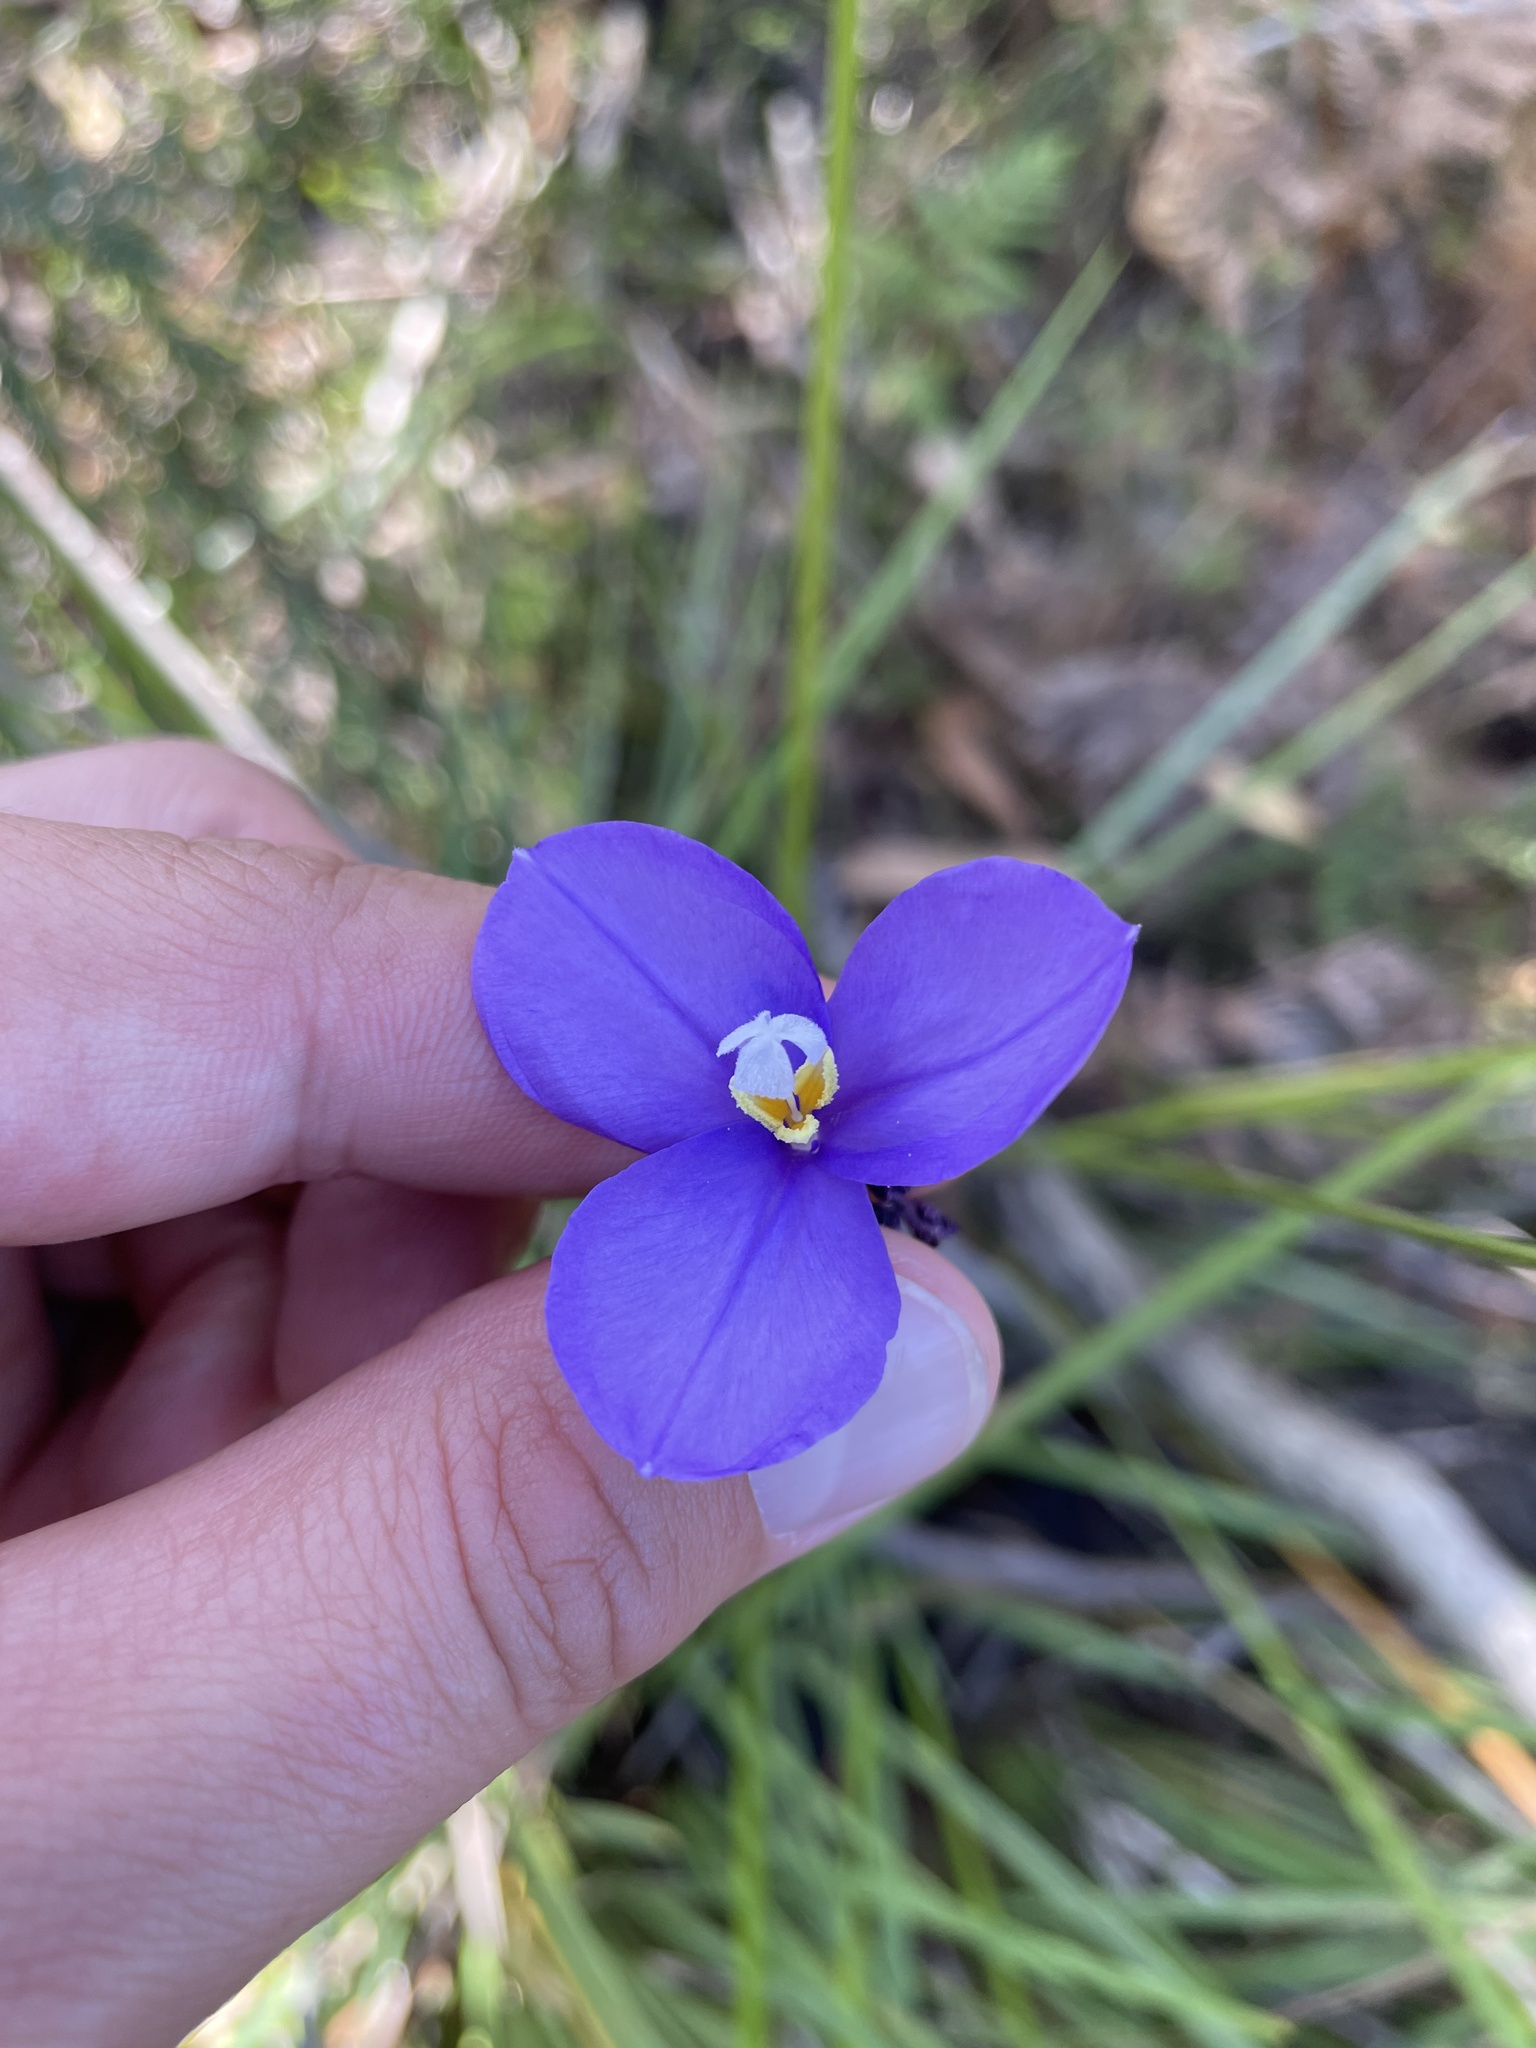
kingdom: Plantae
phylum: Tracheophyta
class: Liliopsida
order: Asparagales
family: Iridaceae
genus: Patersonia
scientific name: Patersonia occidentalis
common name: Long purple-flag
